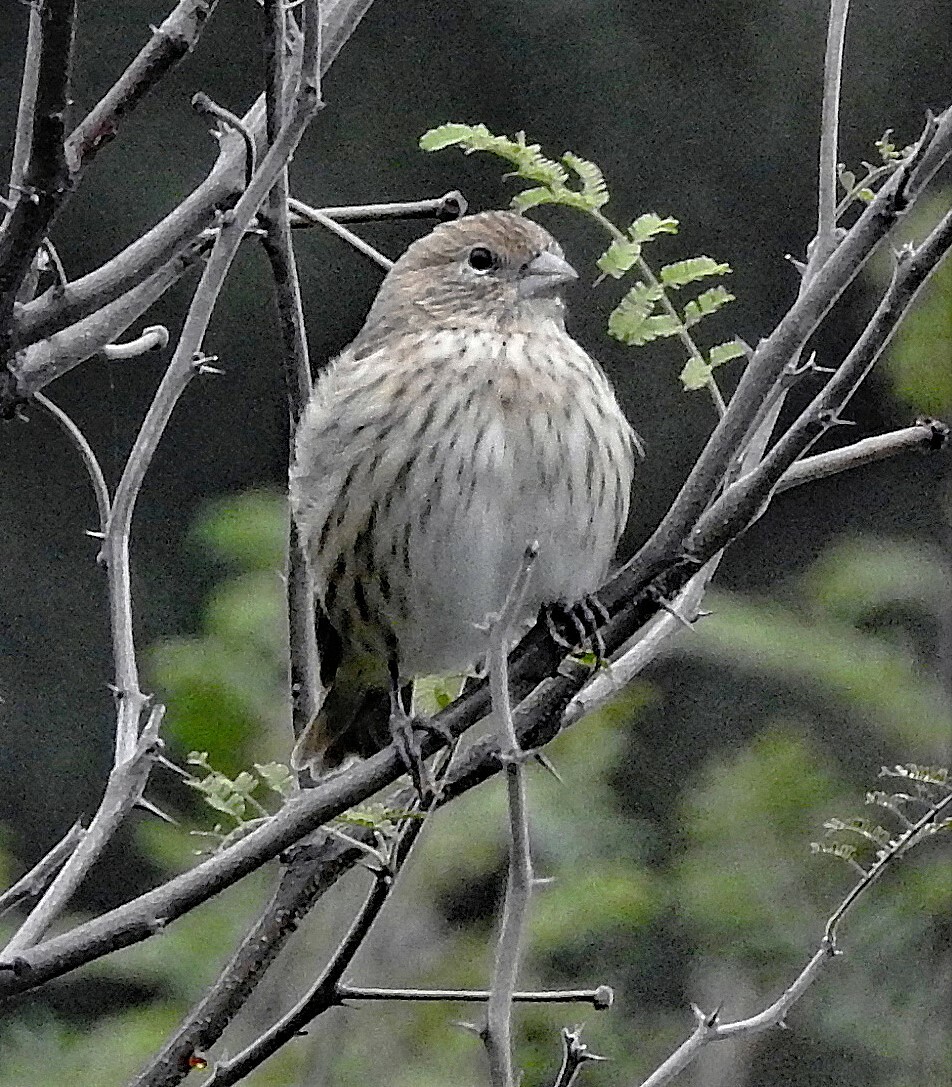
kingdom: Animalia
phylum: Chordata
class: Aves
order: Passeriformes
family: Thraupidae
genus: Sicalis
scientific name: Sicalis flaveola
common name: Saffron finch
